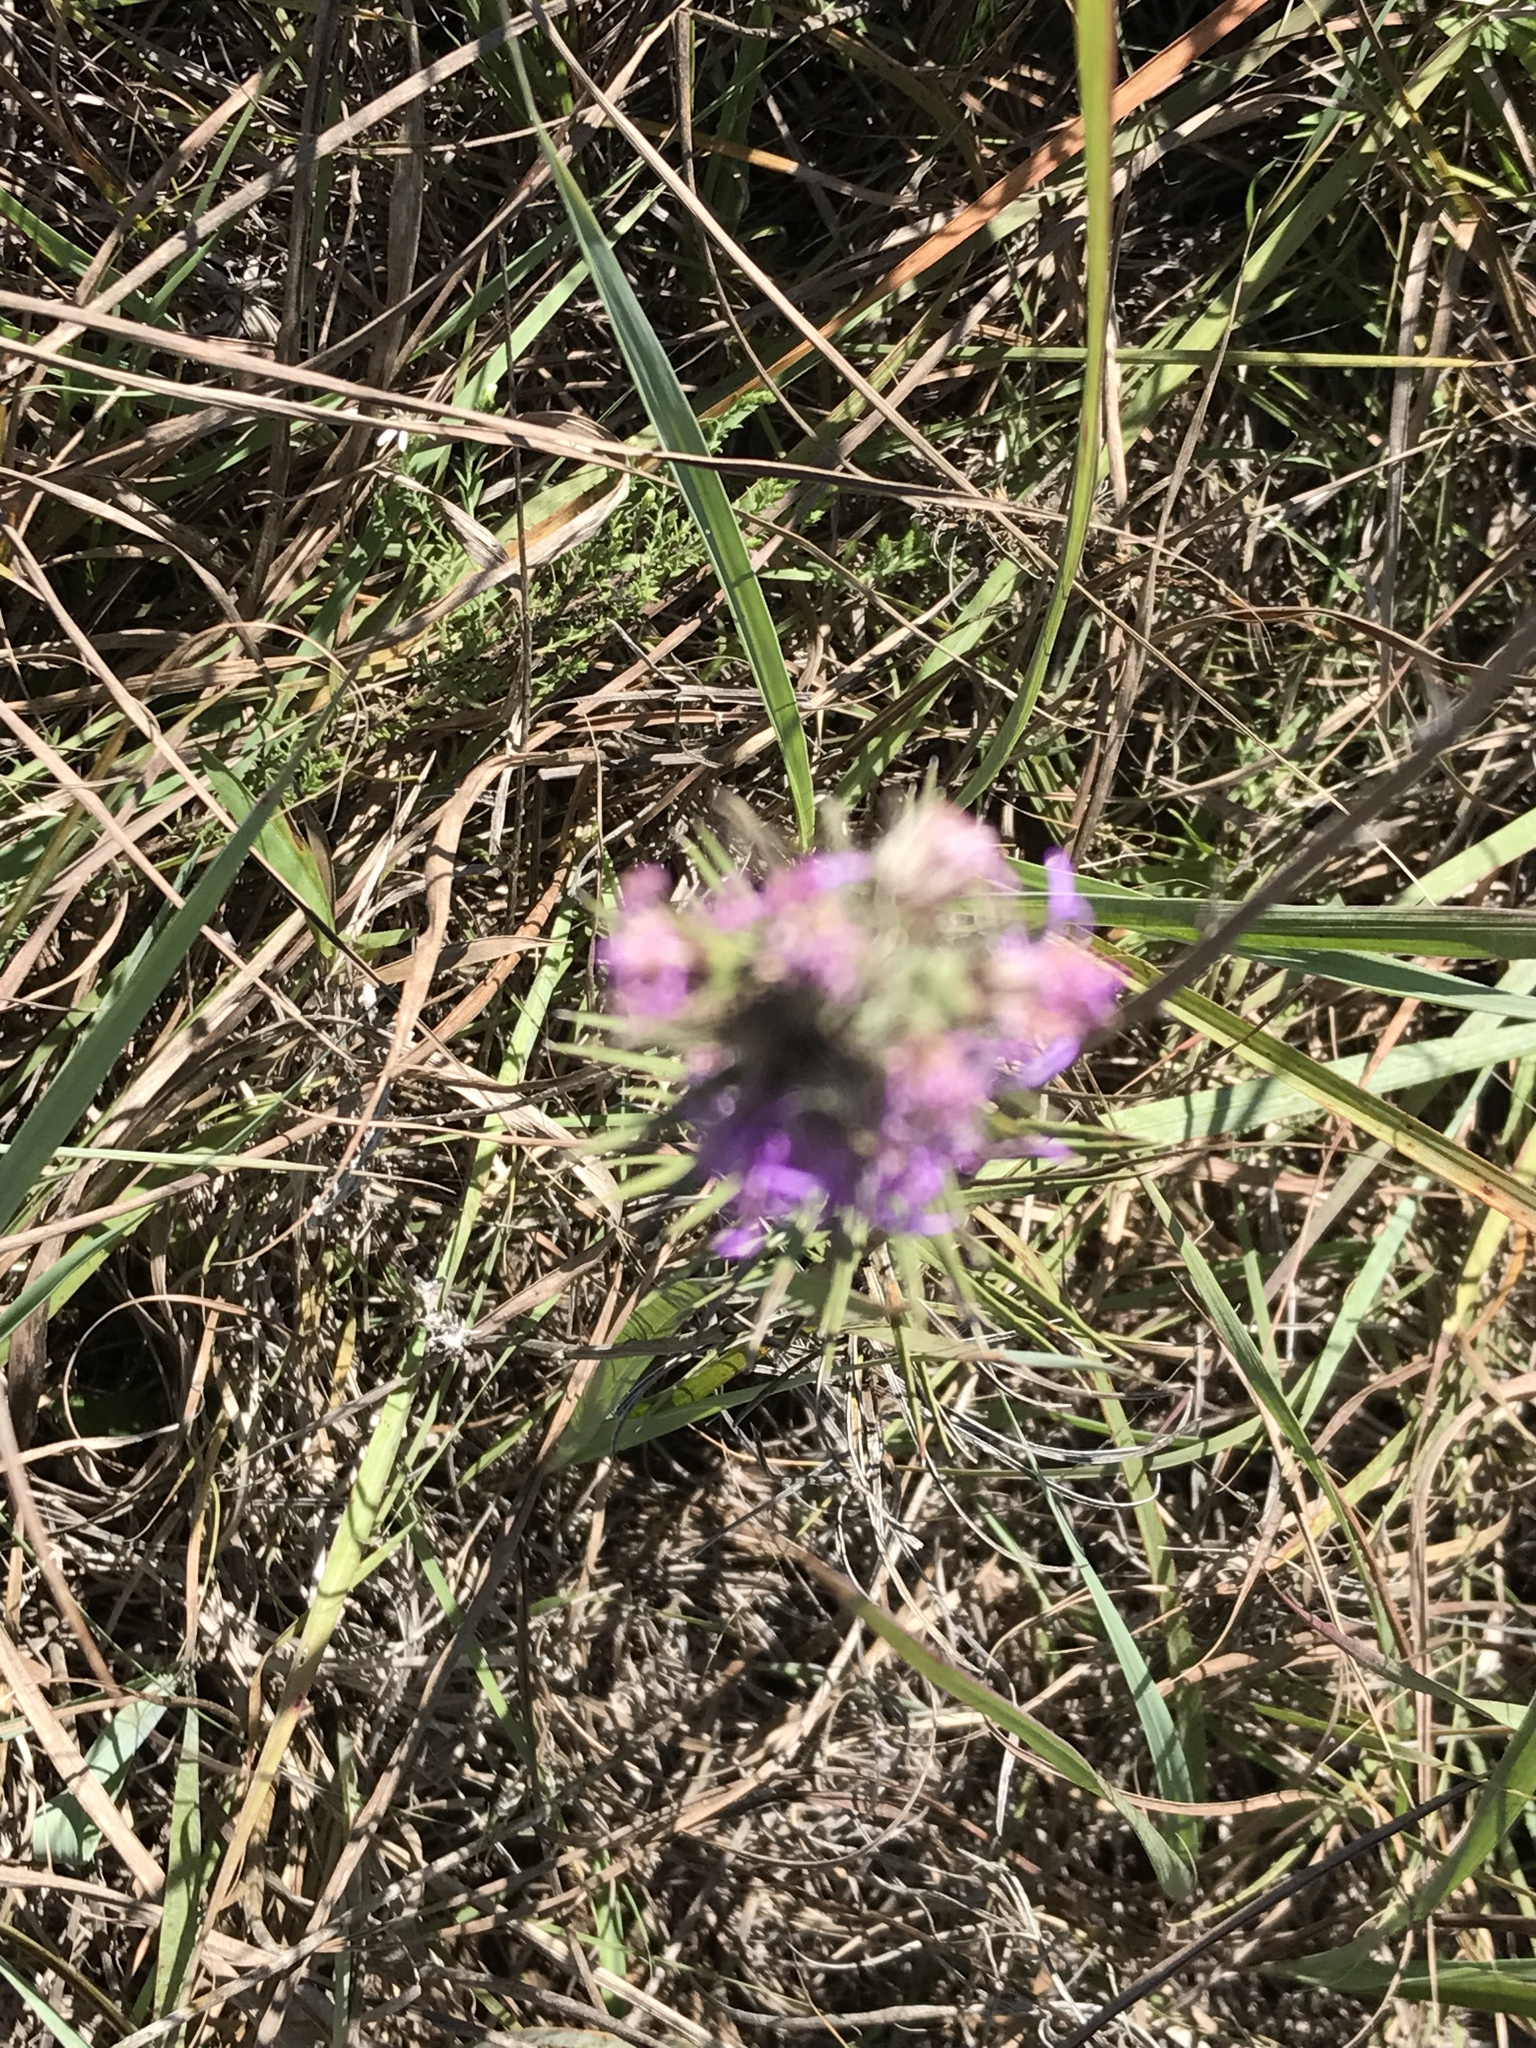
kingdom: Plantae
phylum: Tracheophyta
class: Magnoliopsida
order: Asterales
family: Asteraceae
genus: Liatris
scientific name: Liatris punctata
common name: Dotted gayfeather
